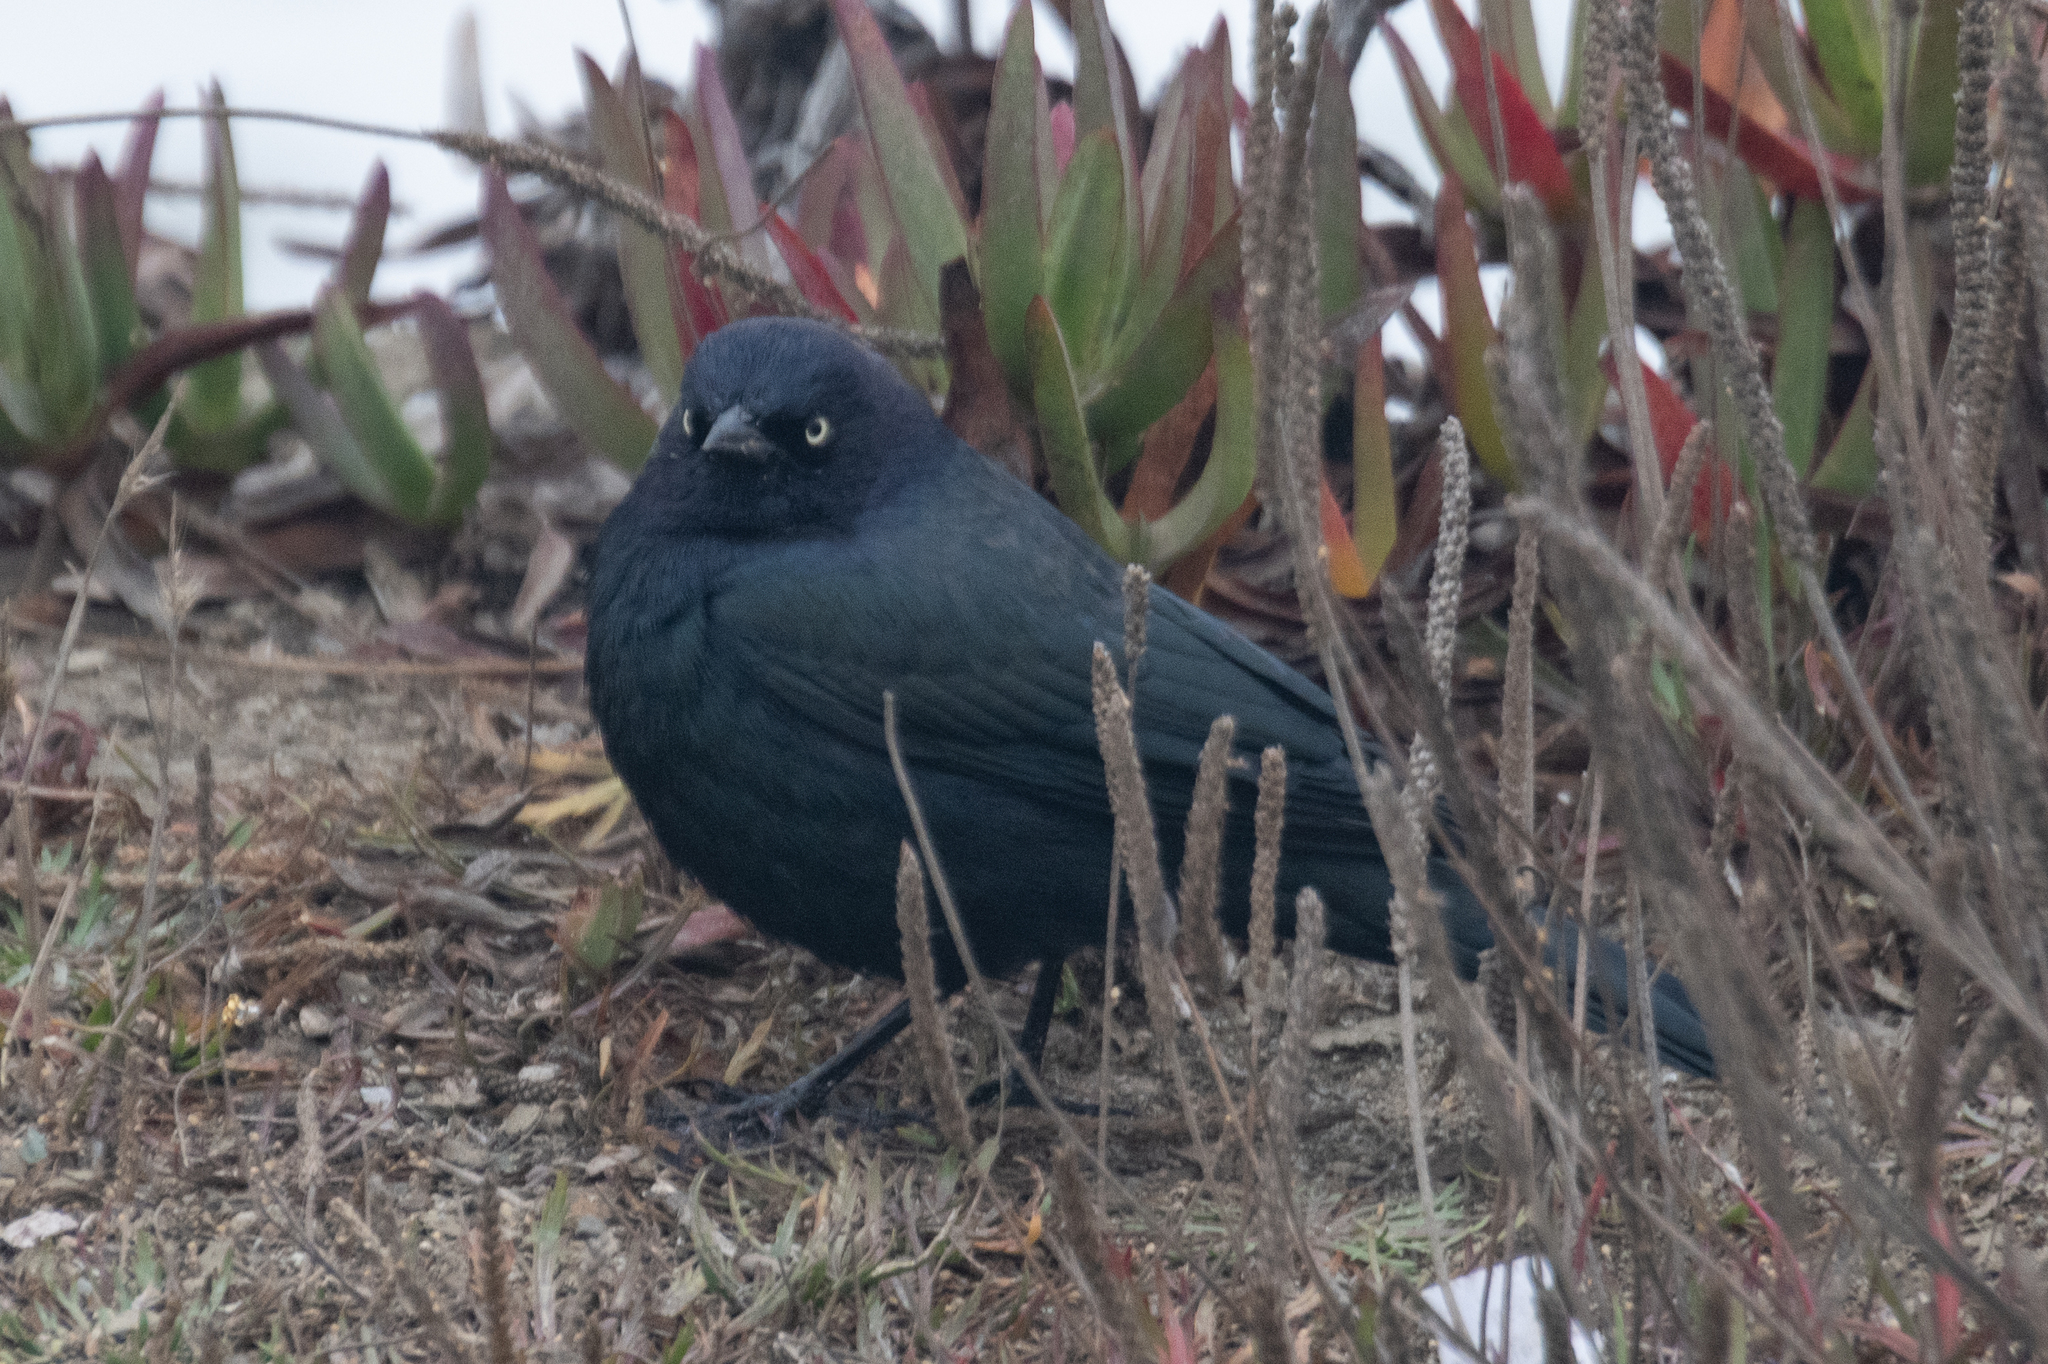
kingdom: Animalia
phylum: Chordata
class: Aves
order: Passeriformes
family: Icteridae
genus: Euphagus
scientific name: Euphagus cyanocephalus
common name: Brewer's blackbird
